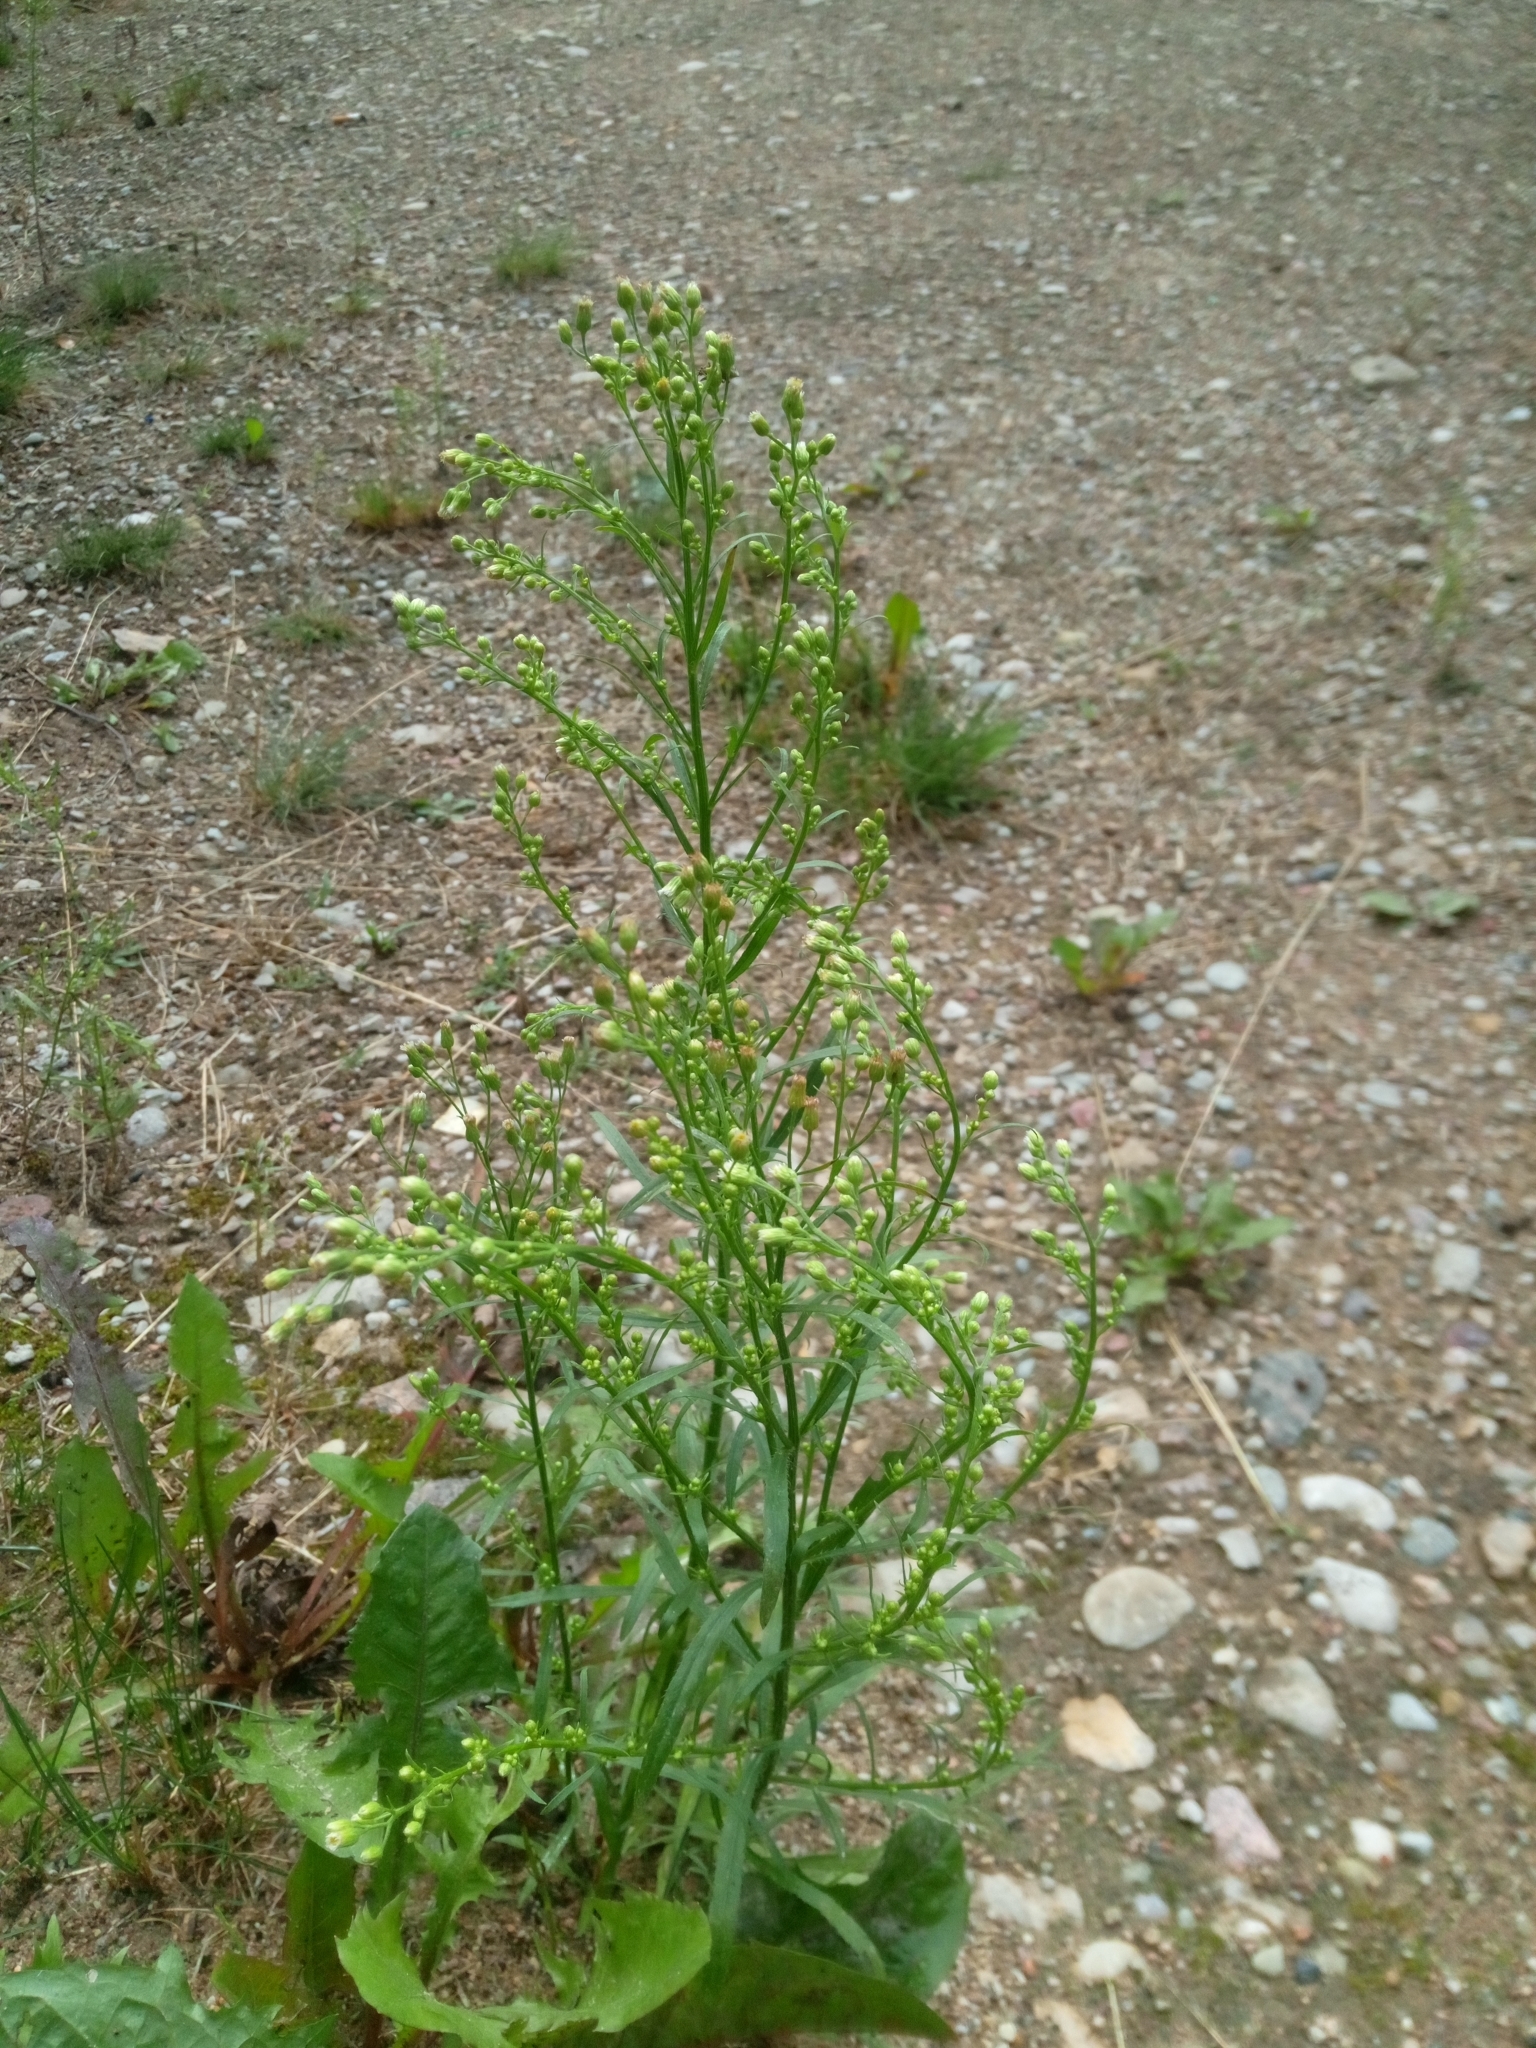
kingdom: Plantae
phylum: Tracheophyta
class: Magnoliopsida
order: Asterales
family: Asteraceae
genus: Erigeron
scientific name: Erigeron canadensis
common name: Canadian fleabane
